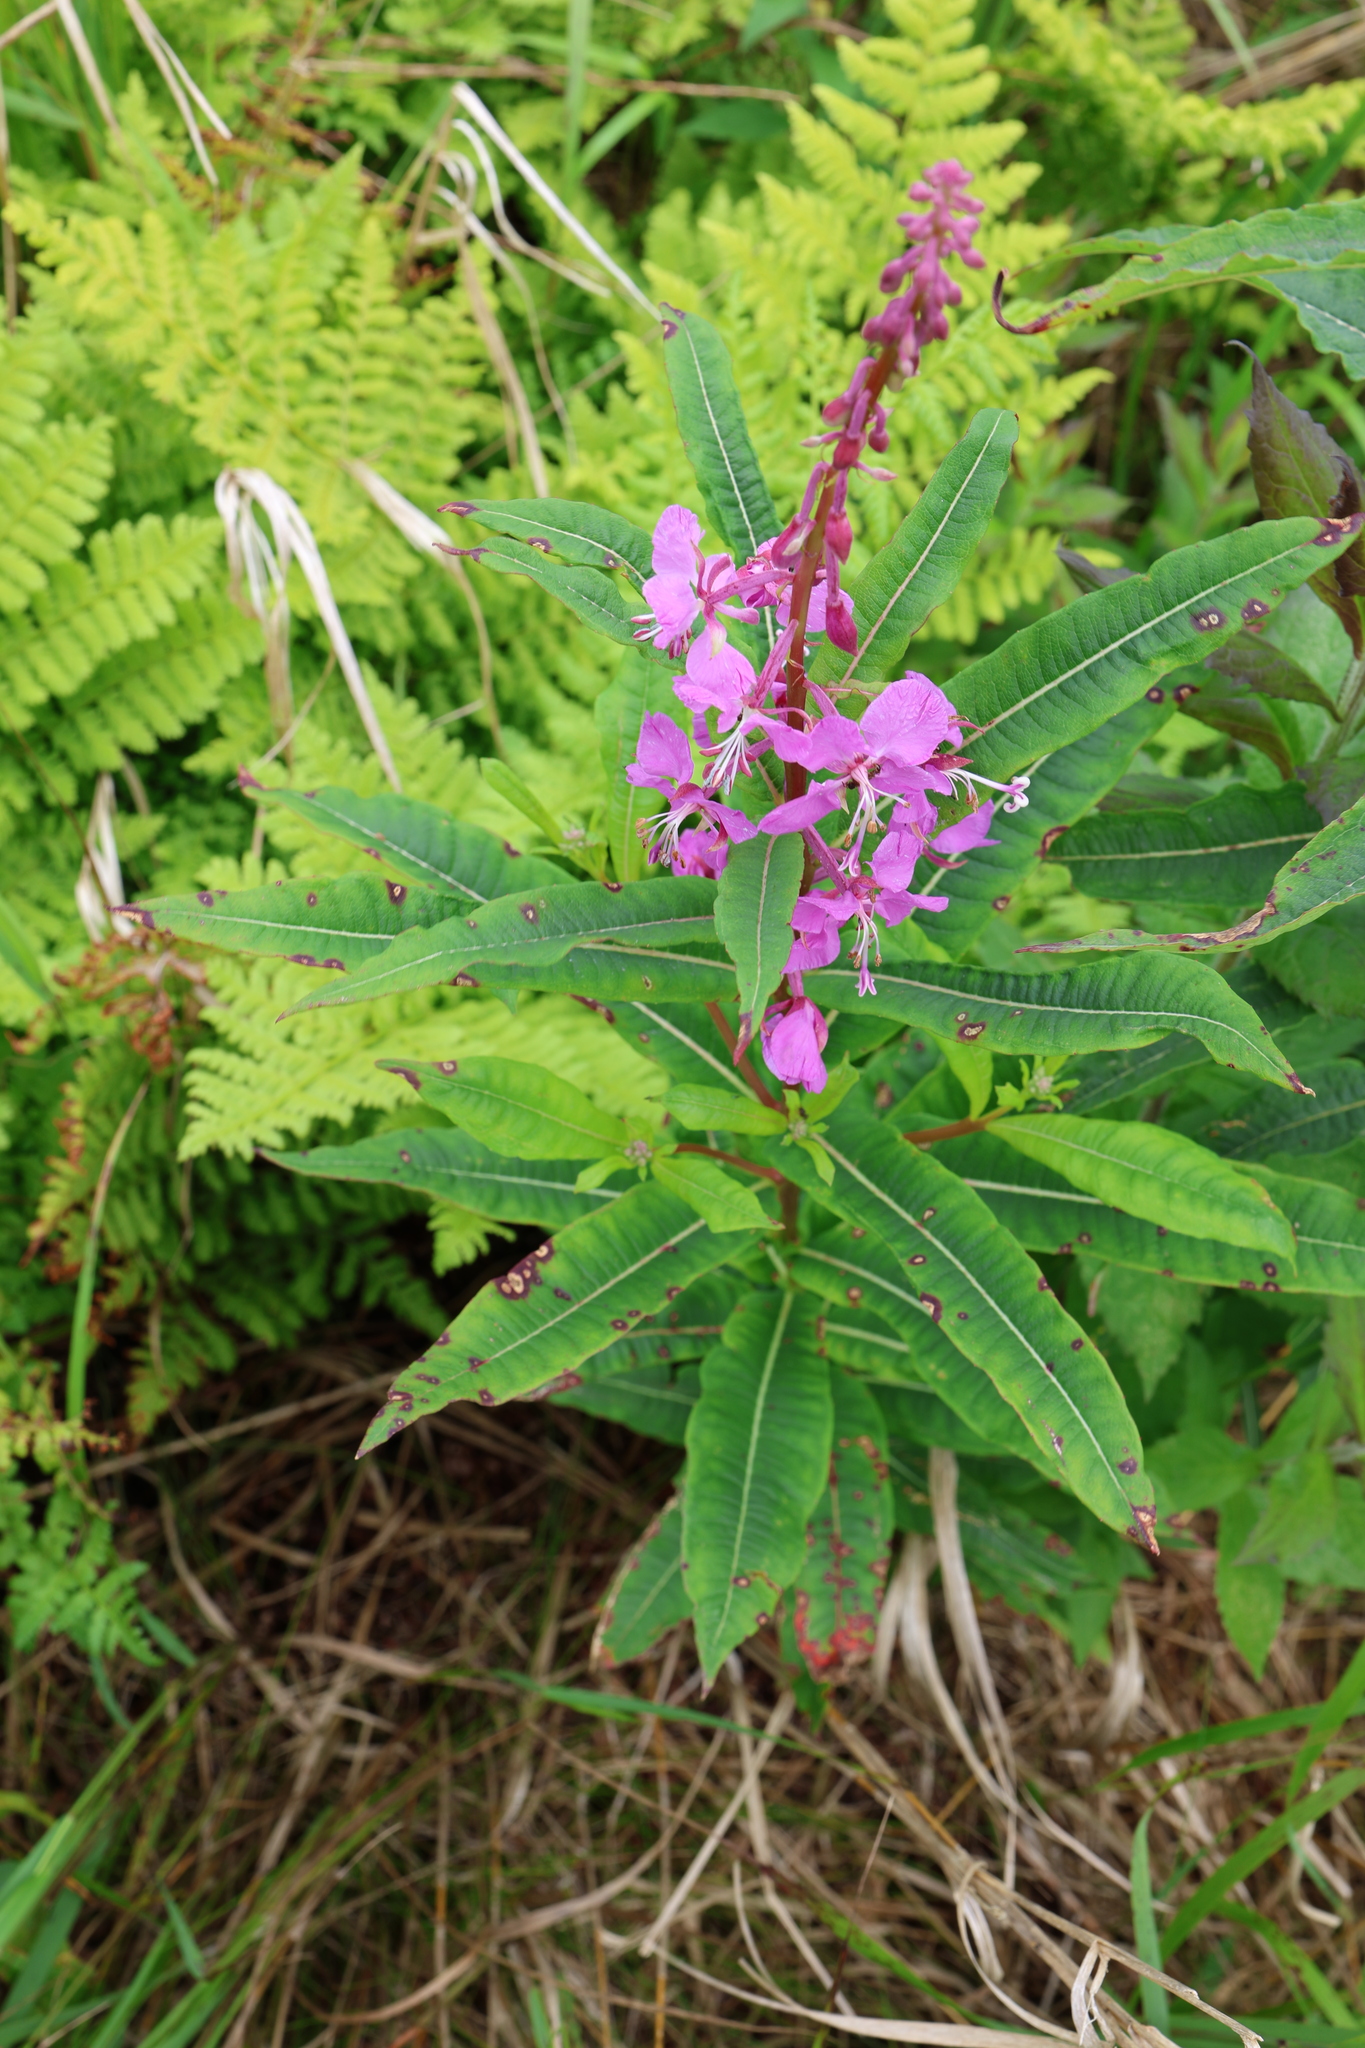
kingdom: Plantae
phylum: Tracheophyta
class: Magnoliopsida
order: Myrtales
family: Onagraceae
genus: Chamaenerion
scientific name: Chamaenerion angustifolium
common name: Fireweed
